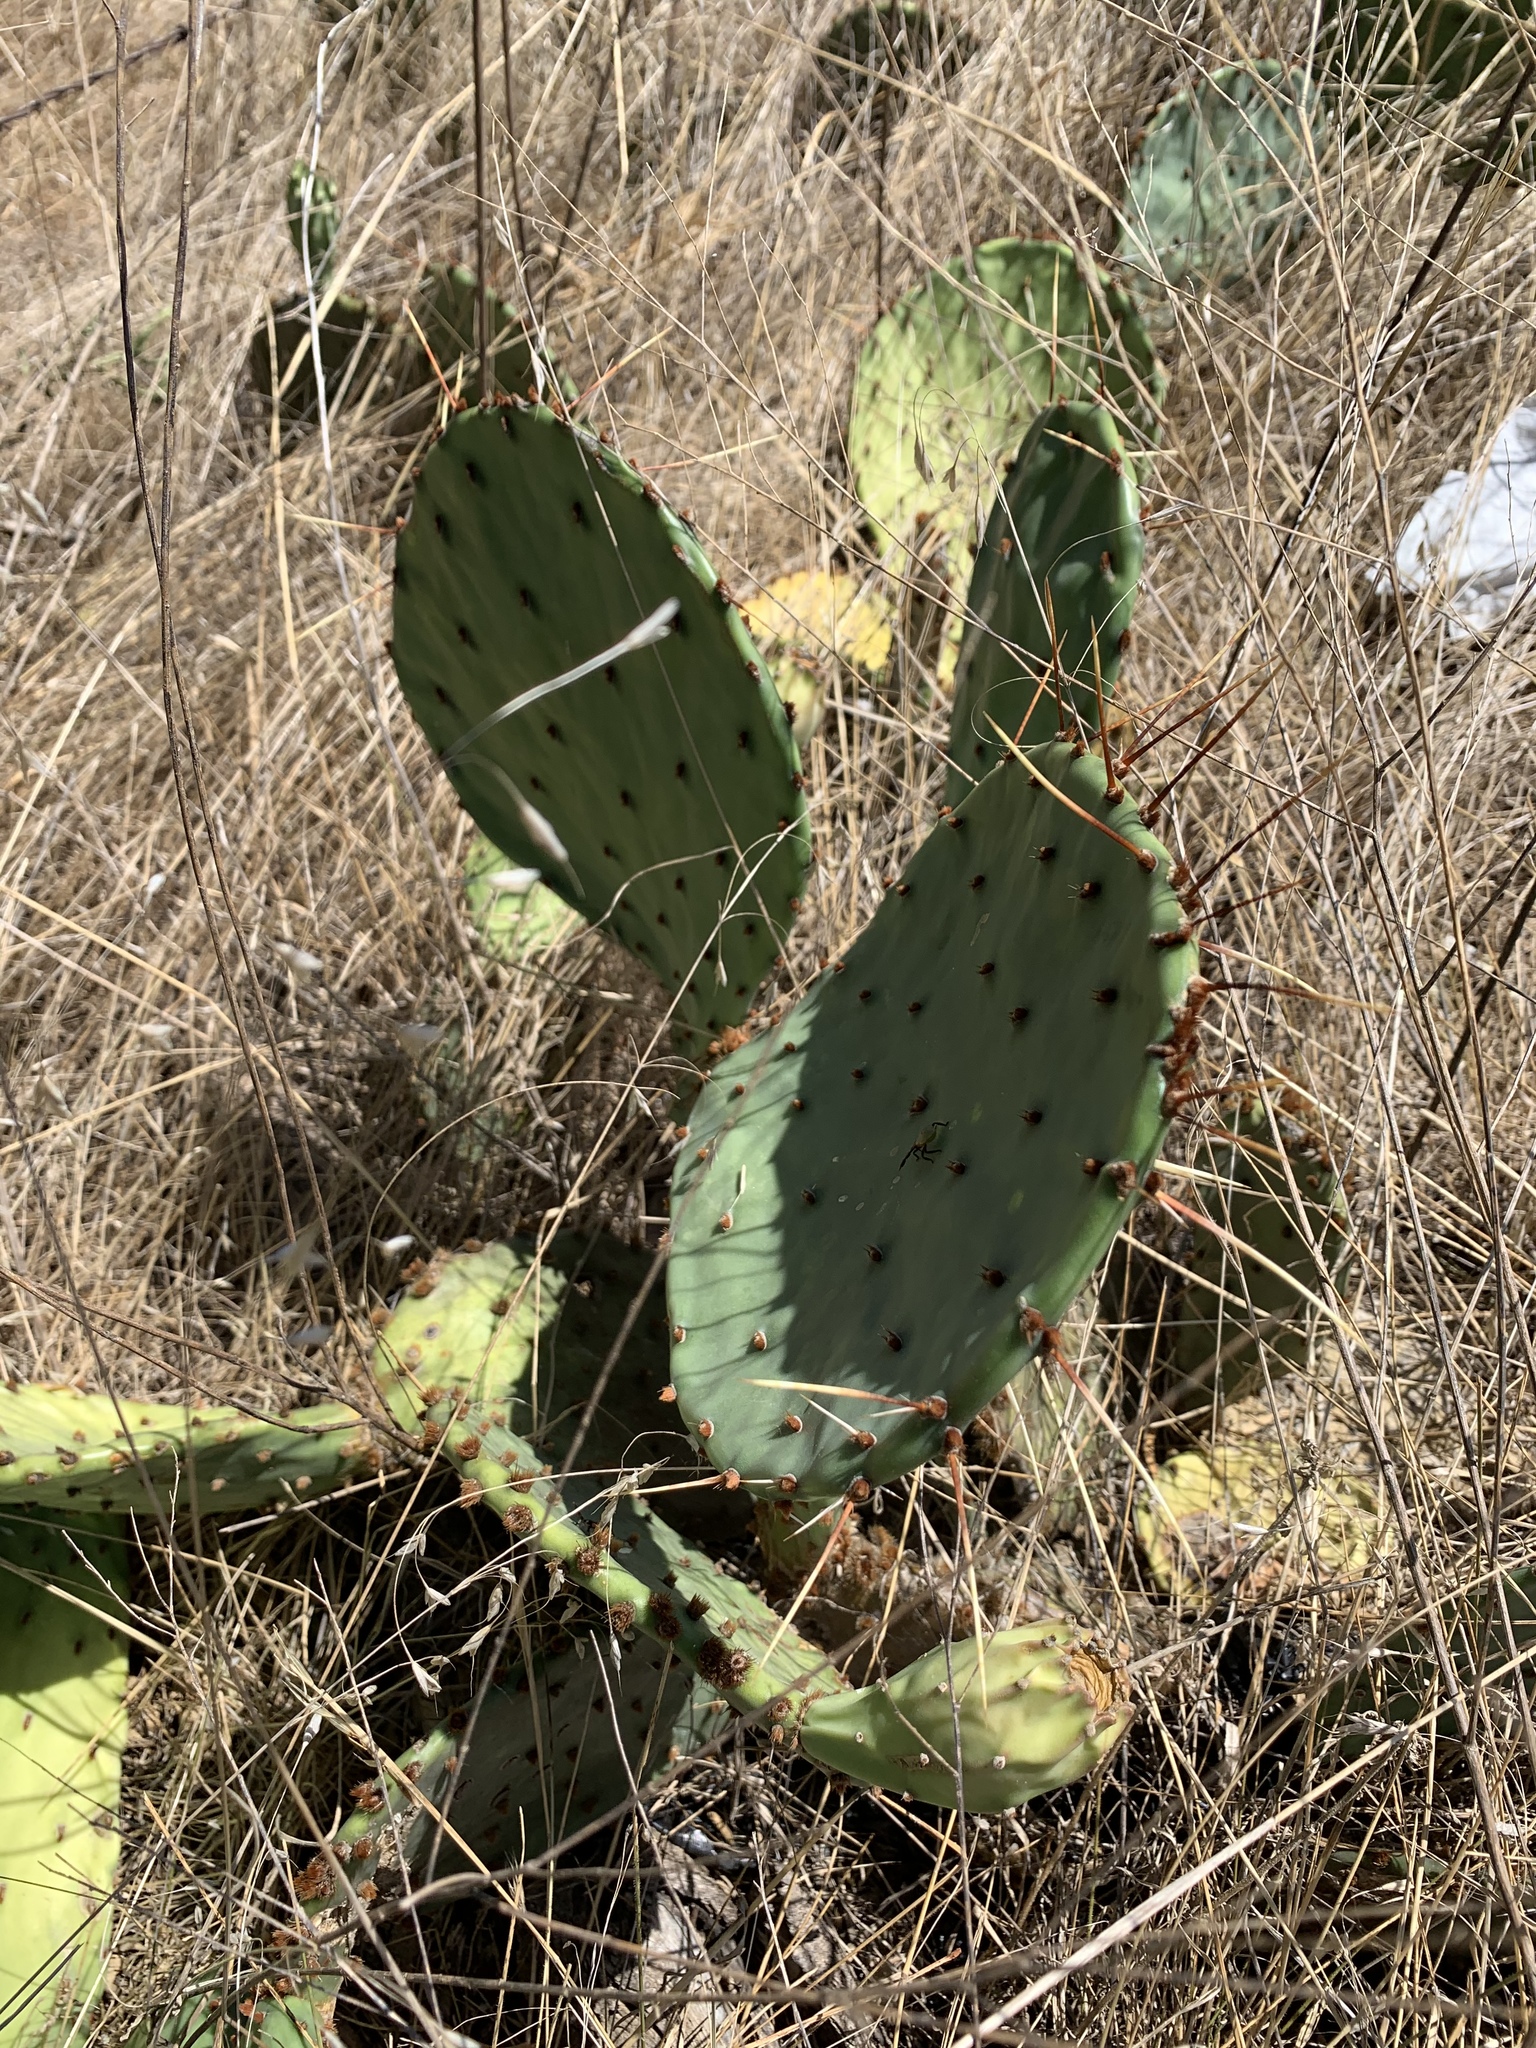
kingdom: Plantae
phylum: Tracheophyta
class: Magnoliopsida
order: Caryophyllales
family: Cactaceae
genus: Opuntia
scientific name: Opuntia phaeacantha
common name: New mexico prickly-pear
